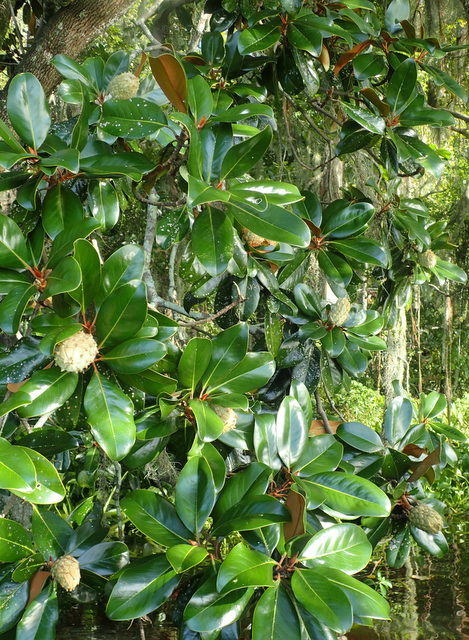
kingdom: Plantae
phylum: Tracheophyta
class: Magnoliopsida
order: Magnoliales
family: Magnoliaceae
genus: Magnolia
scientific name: Magnolia grandiflora
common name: Southern magnolia
